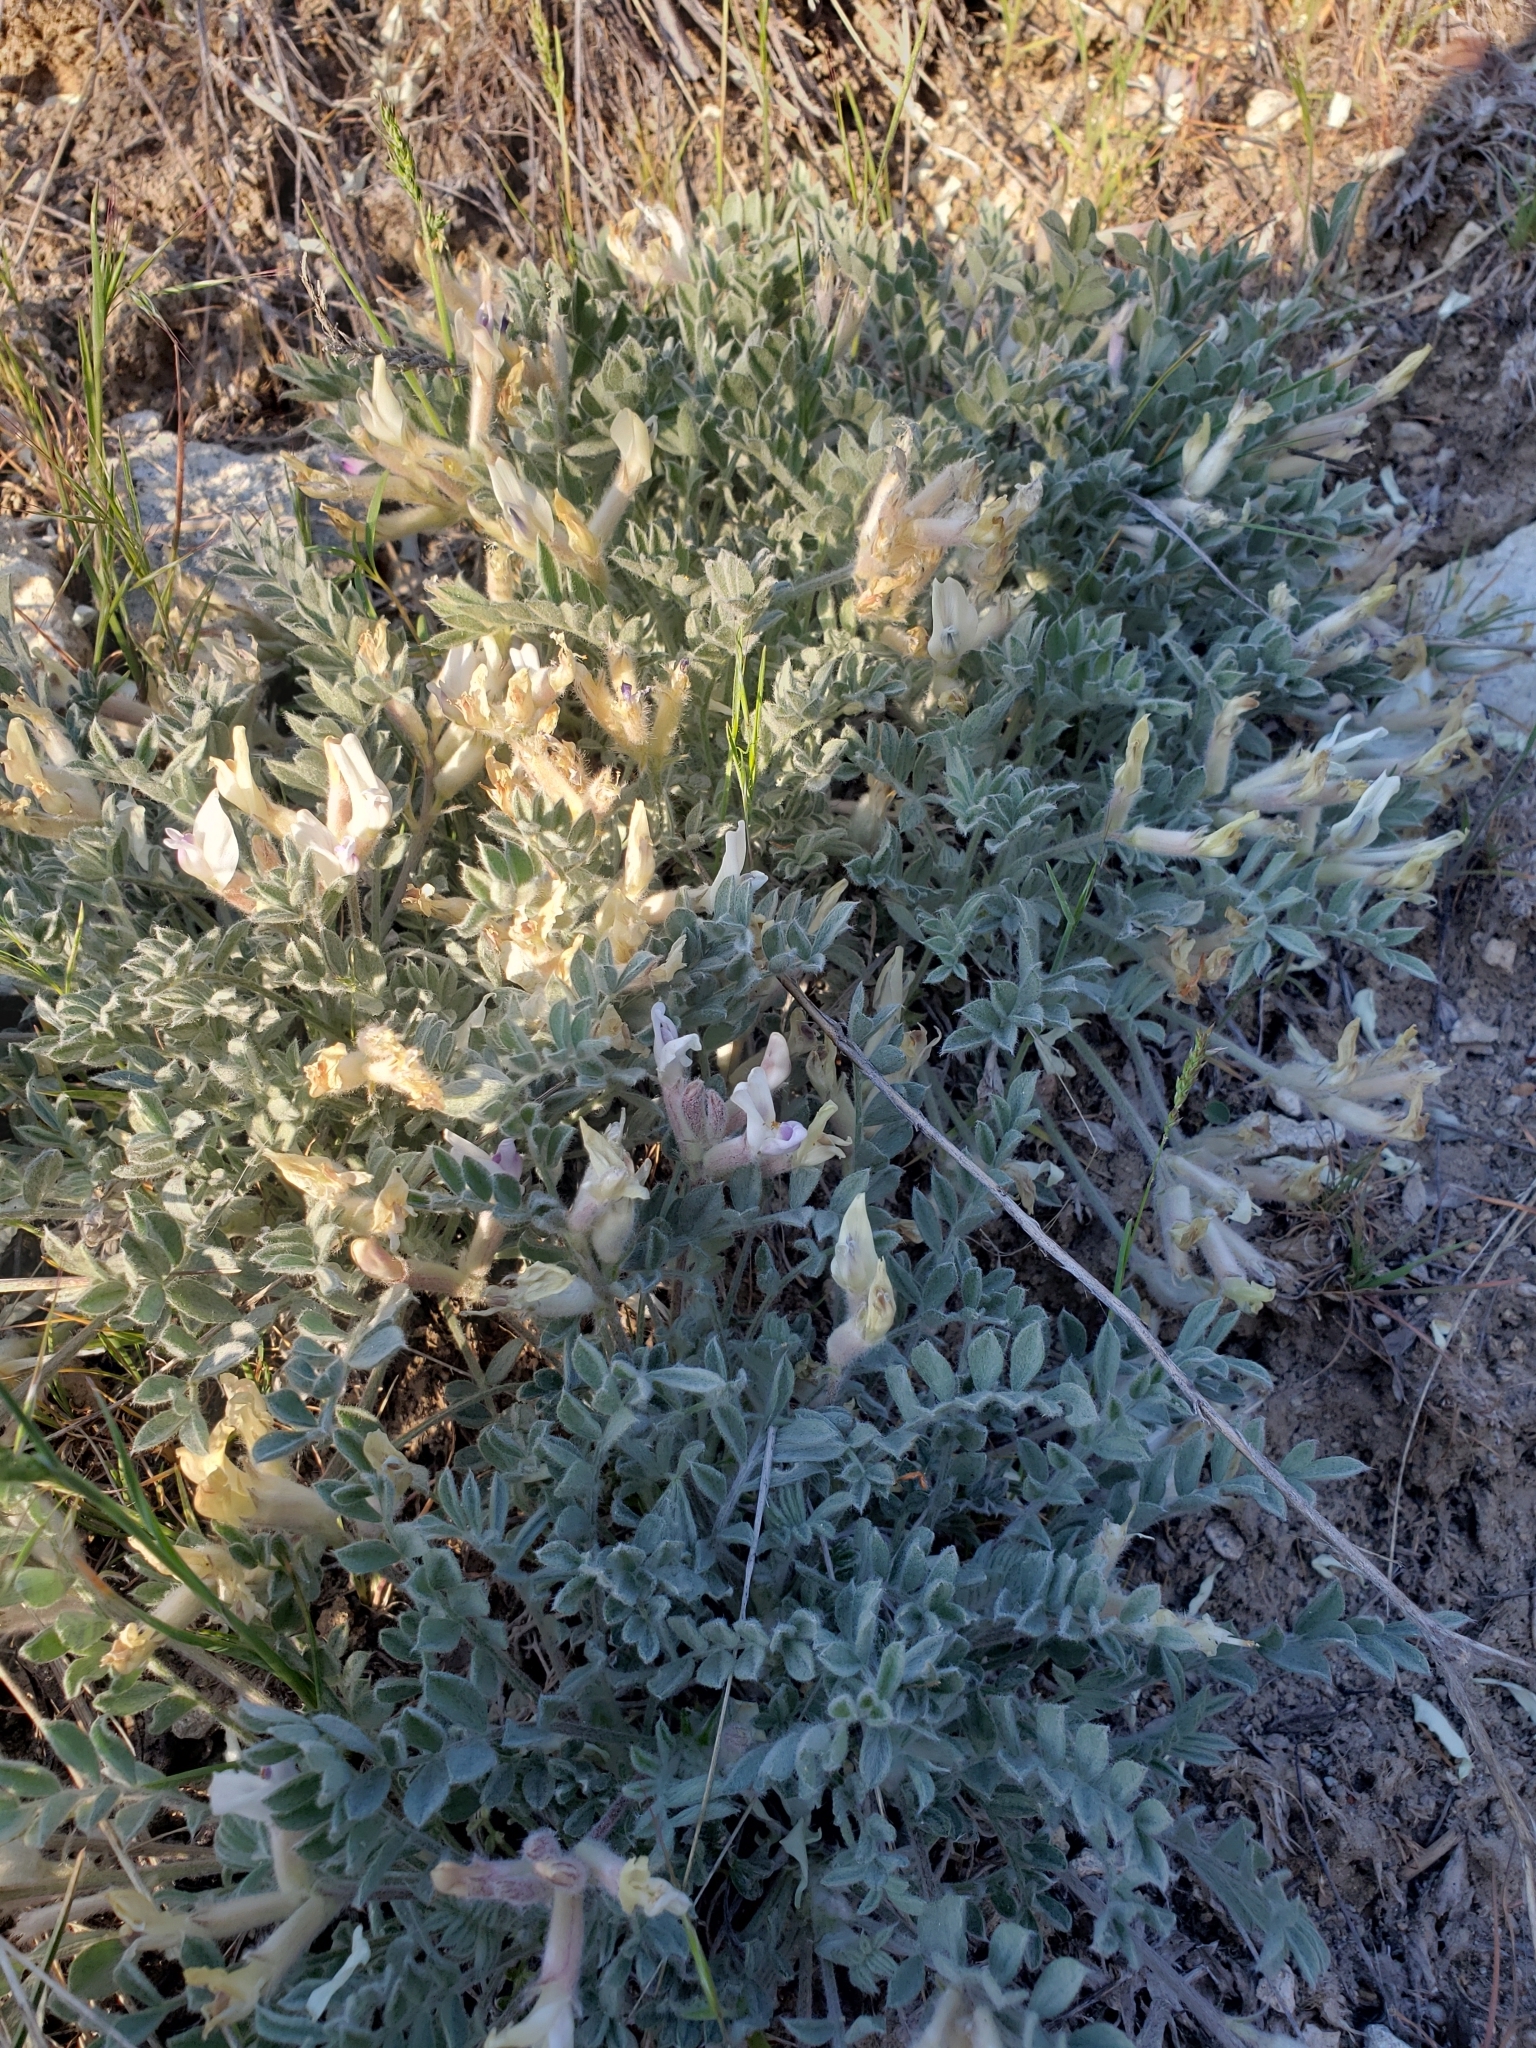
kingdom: Plantae
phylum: Tracheophyta
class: Magnoliopsida
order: Fabales
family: Fabaceae
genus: Astragalus
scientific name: Astragalus purshii
